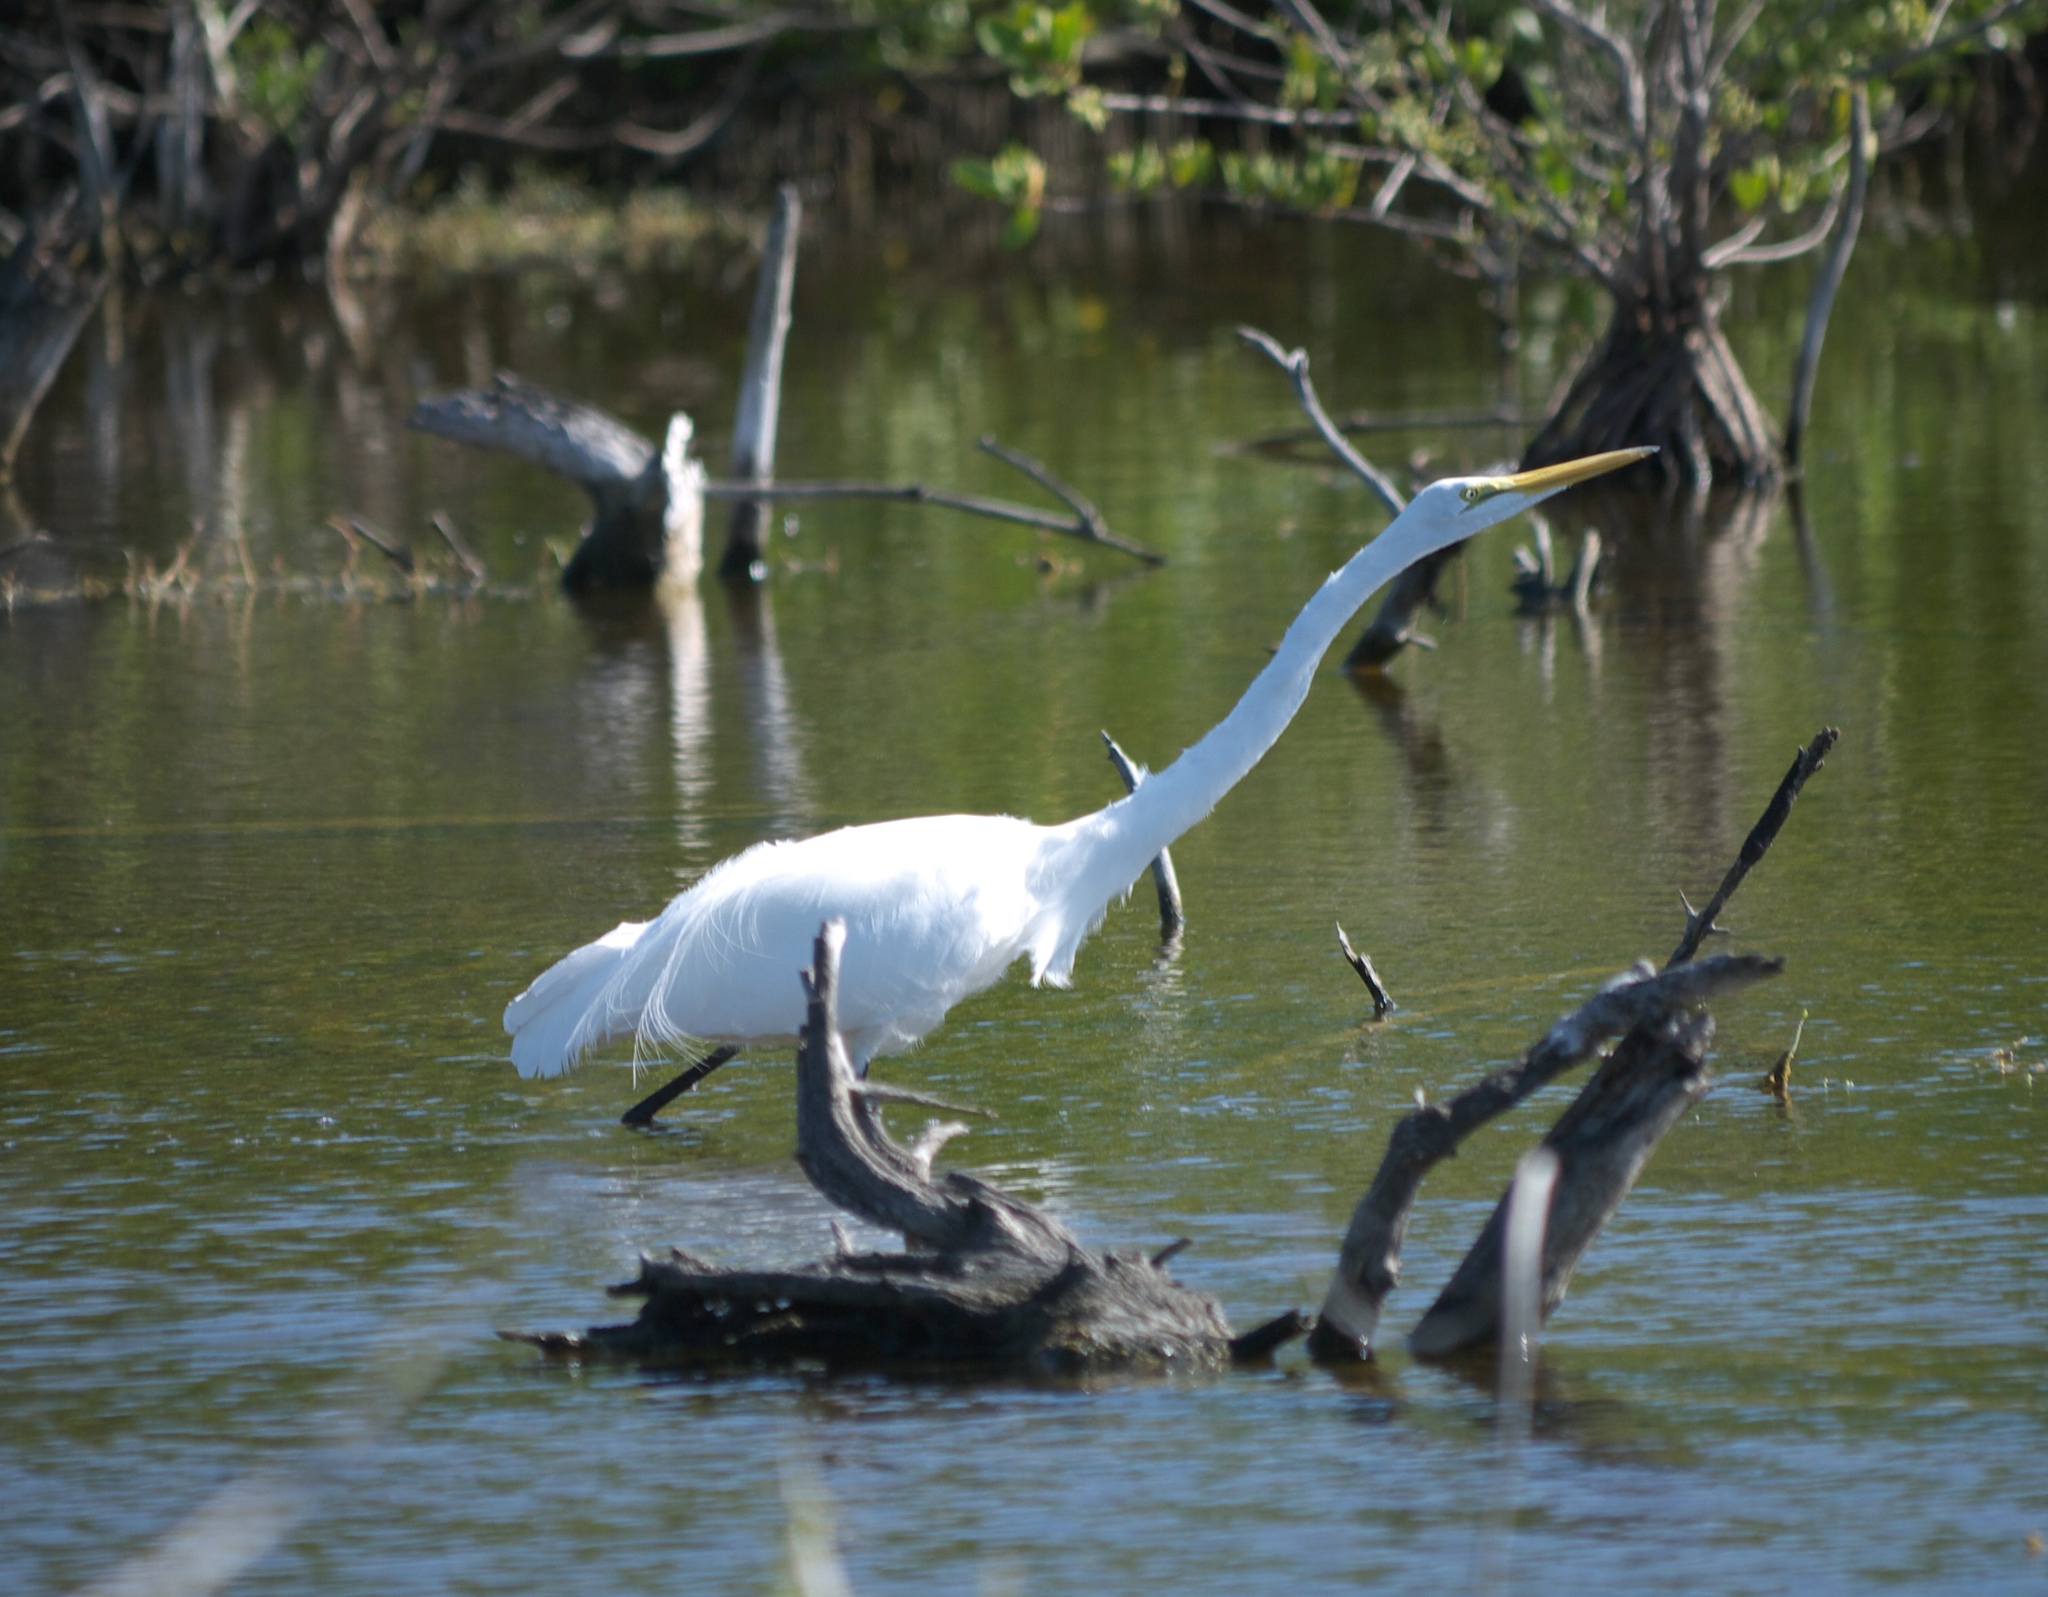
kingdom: Animalia
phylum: Chordata
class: Aves
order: Pelecaniformes
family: Ardeidae
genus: Ardea
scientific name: Ardea alba
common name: Great egret
